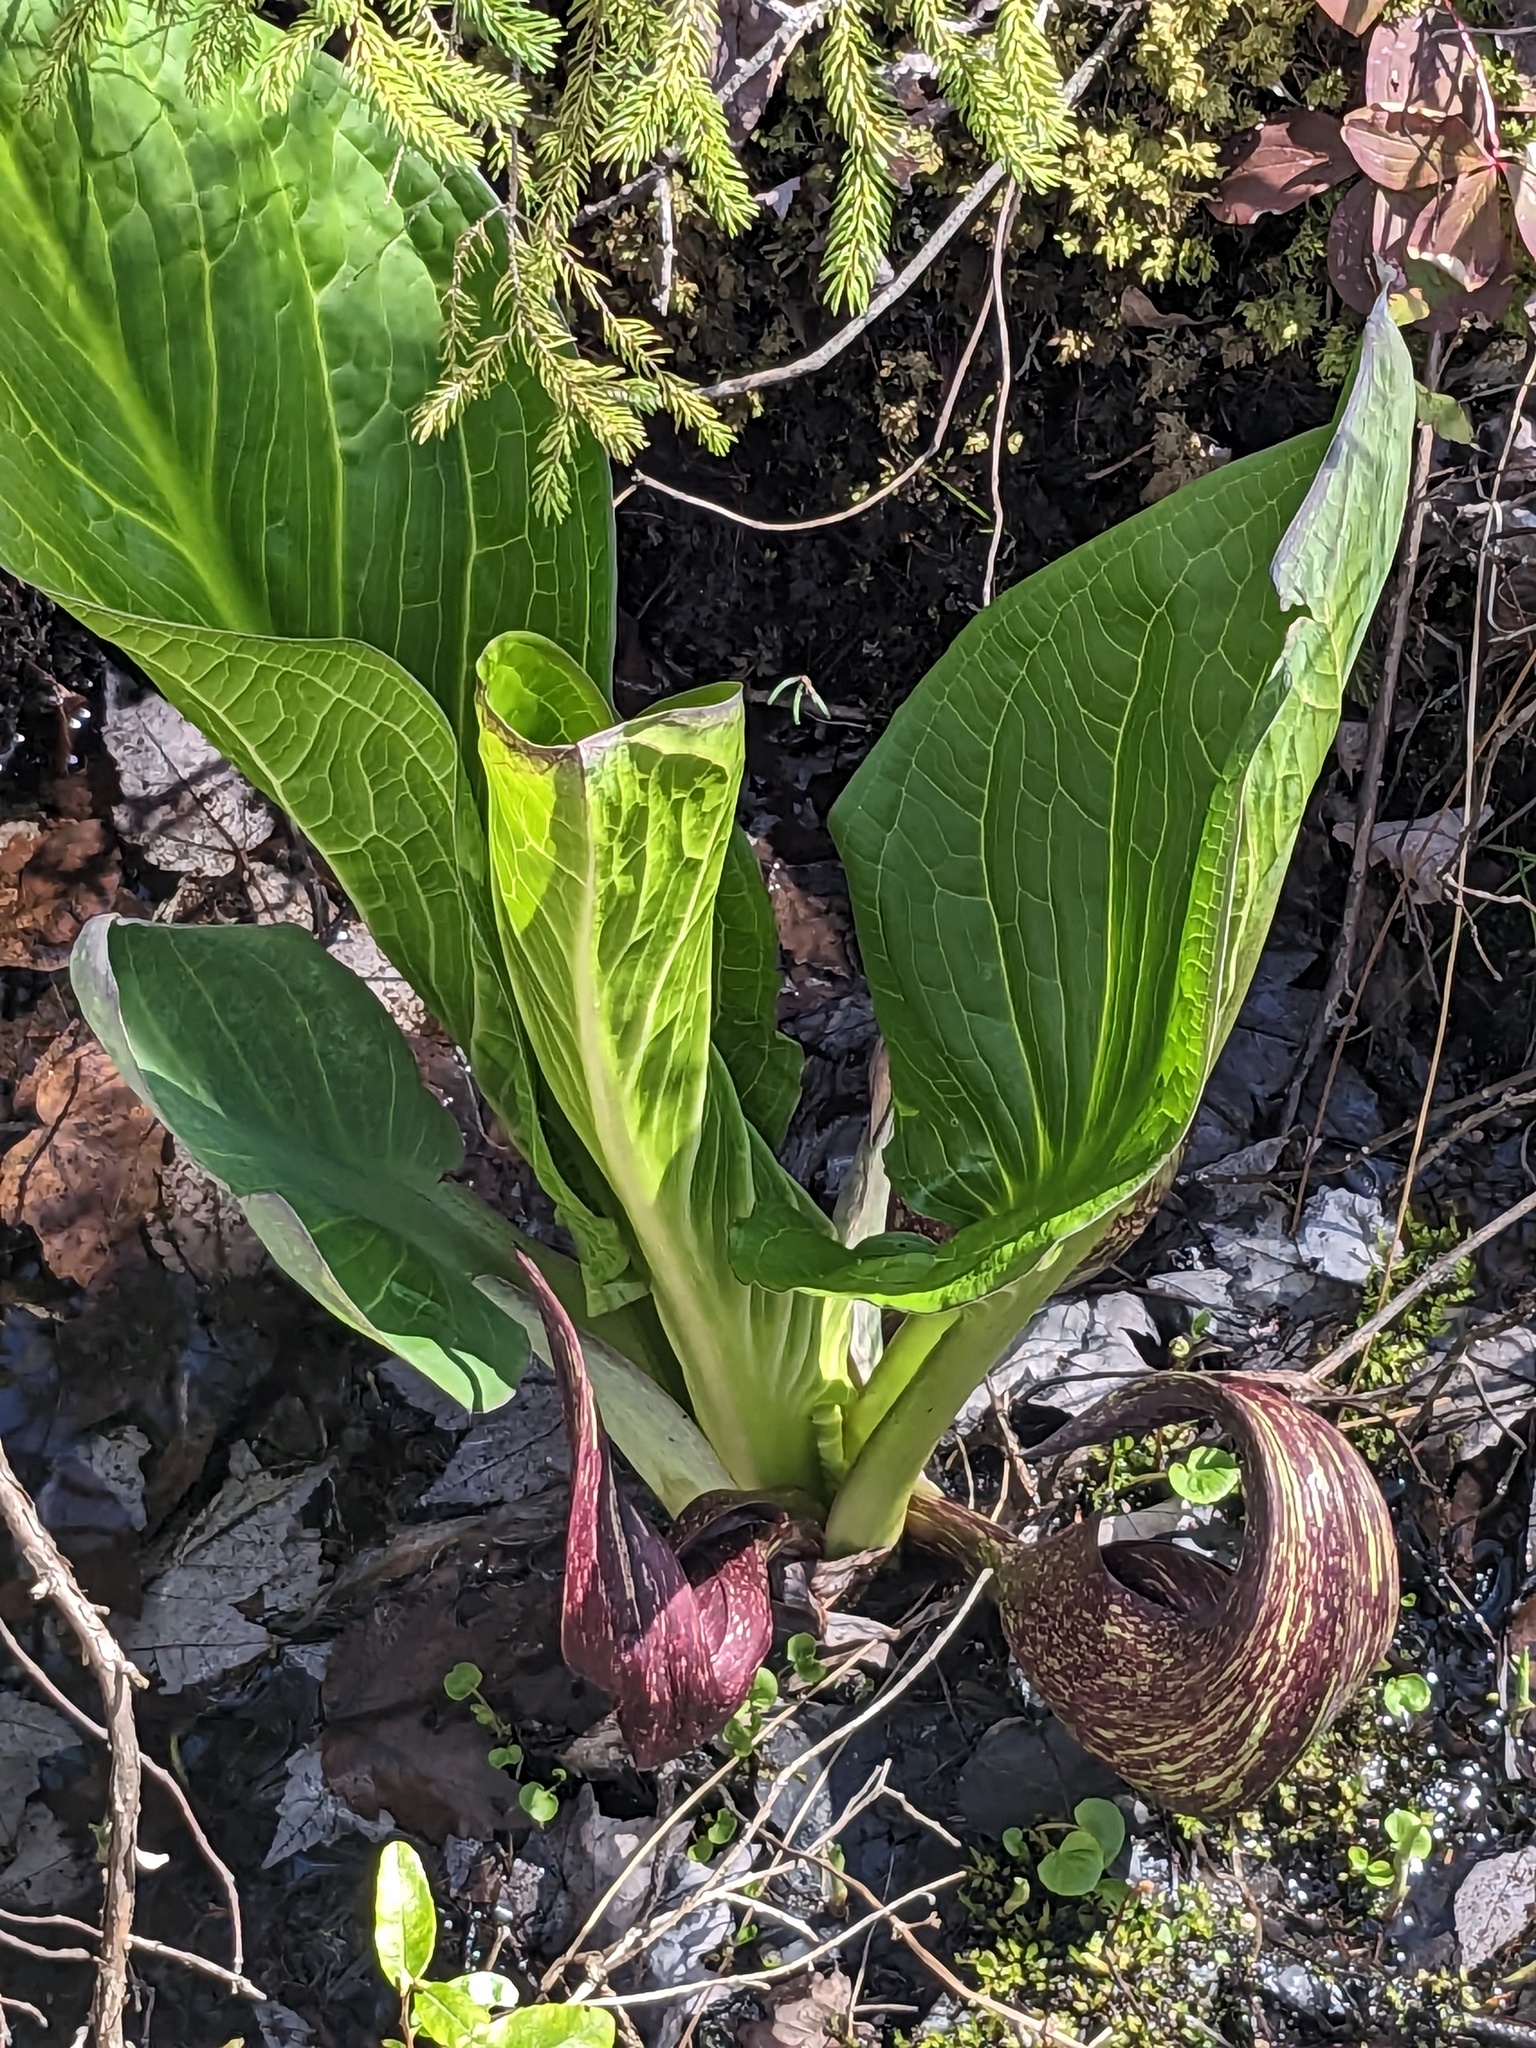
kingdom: Plantae
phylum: Tracheophyta
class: Liliopsida
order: Alismatales
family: Araceae
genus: Symplocarpus
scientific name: Symplocarpus foetidus
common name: Eastern skunk cabbage
